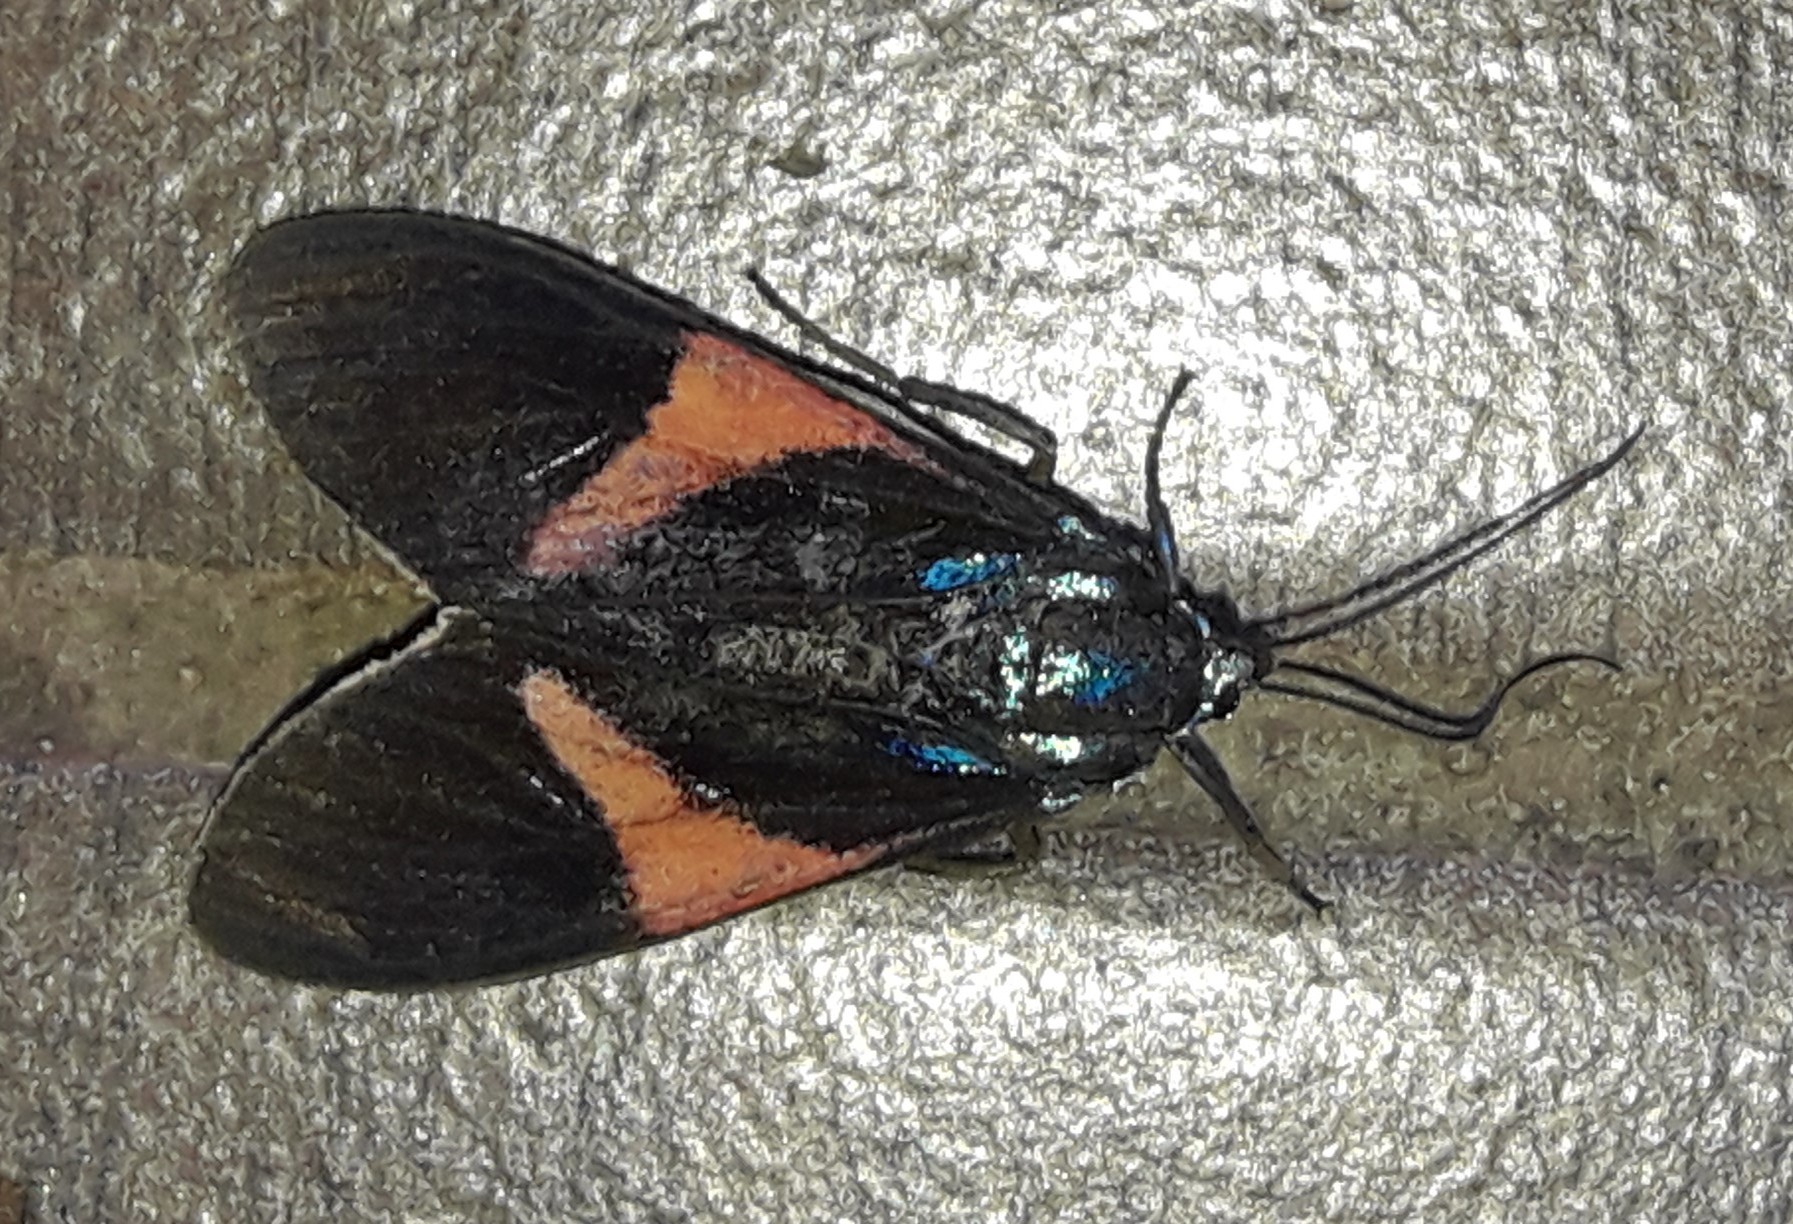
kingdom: Animalia
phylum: Arthropoda
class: Insecta
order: Lepidoptera
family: Erebidae
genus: Cyanopepla
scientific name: Cyanopepla panamensis
